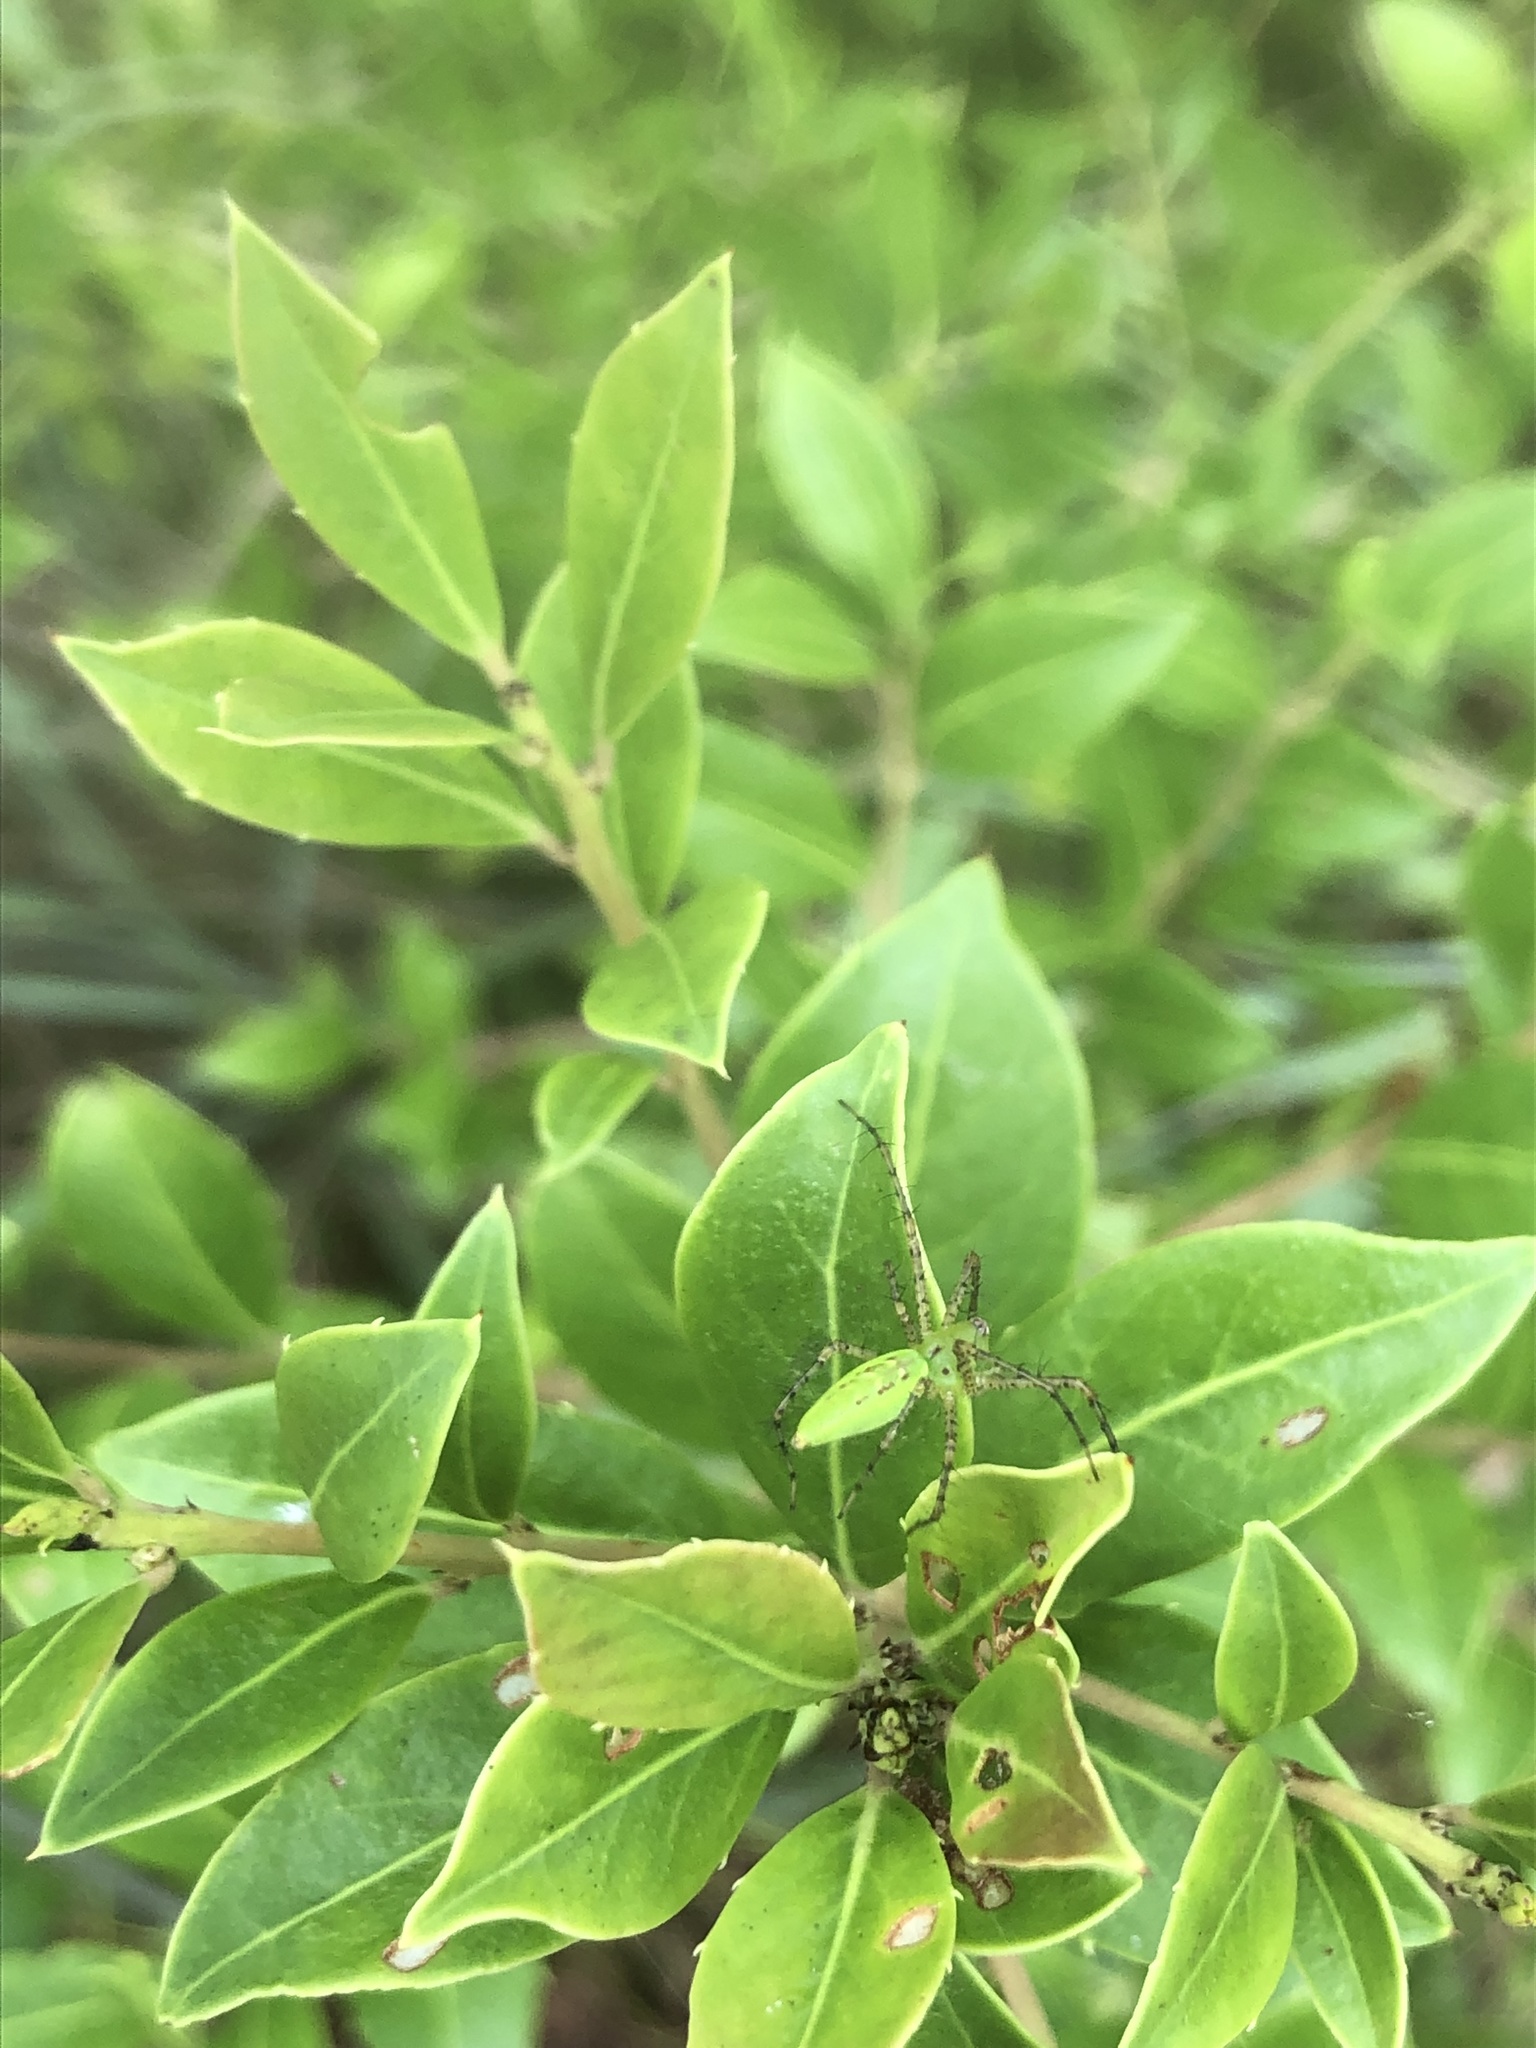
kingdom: Animalia
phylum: Arthropoda
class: Arachnida
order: Araneae
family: Oxyopidae
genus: Peucetia
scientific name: Peucetia viridans
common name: Lynx spiders
